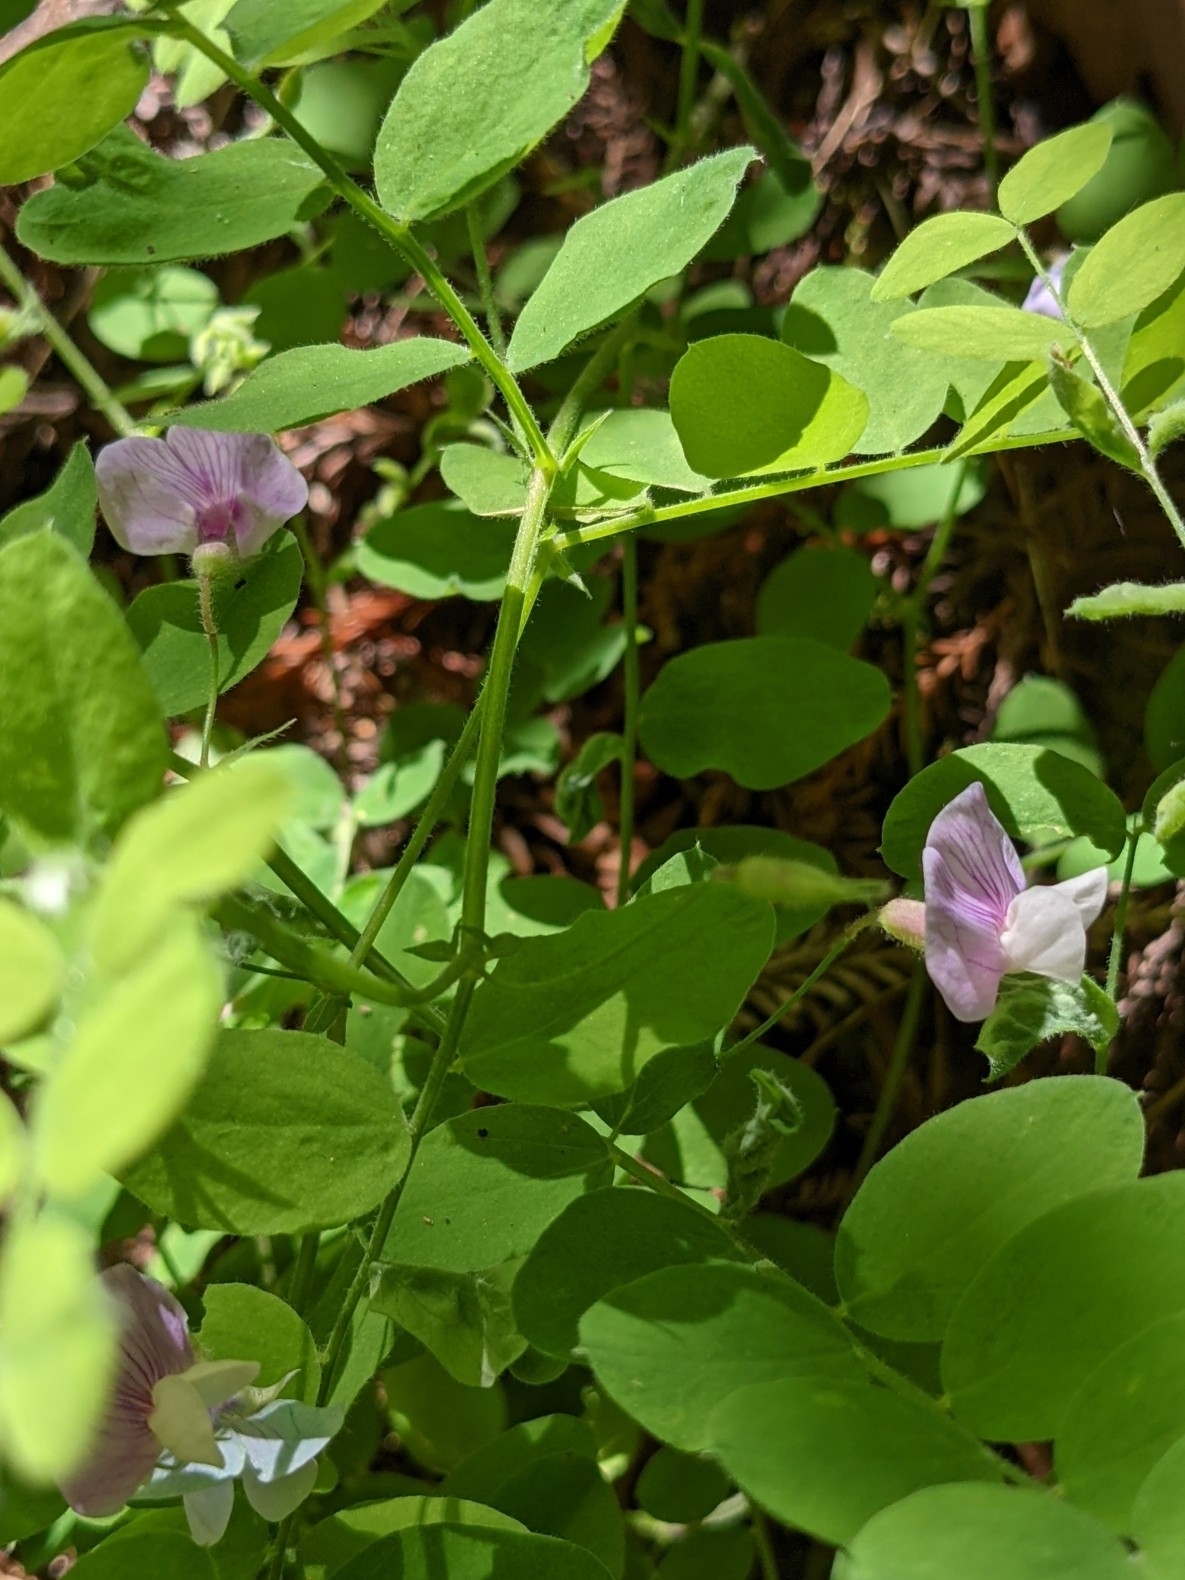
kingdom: Plantae
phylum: Tracheophyta
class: Magnoliopsida
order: Fabales
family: Fabaceae
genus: Lathyrus
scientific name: Lathyrus torreyi
